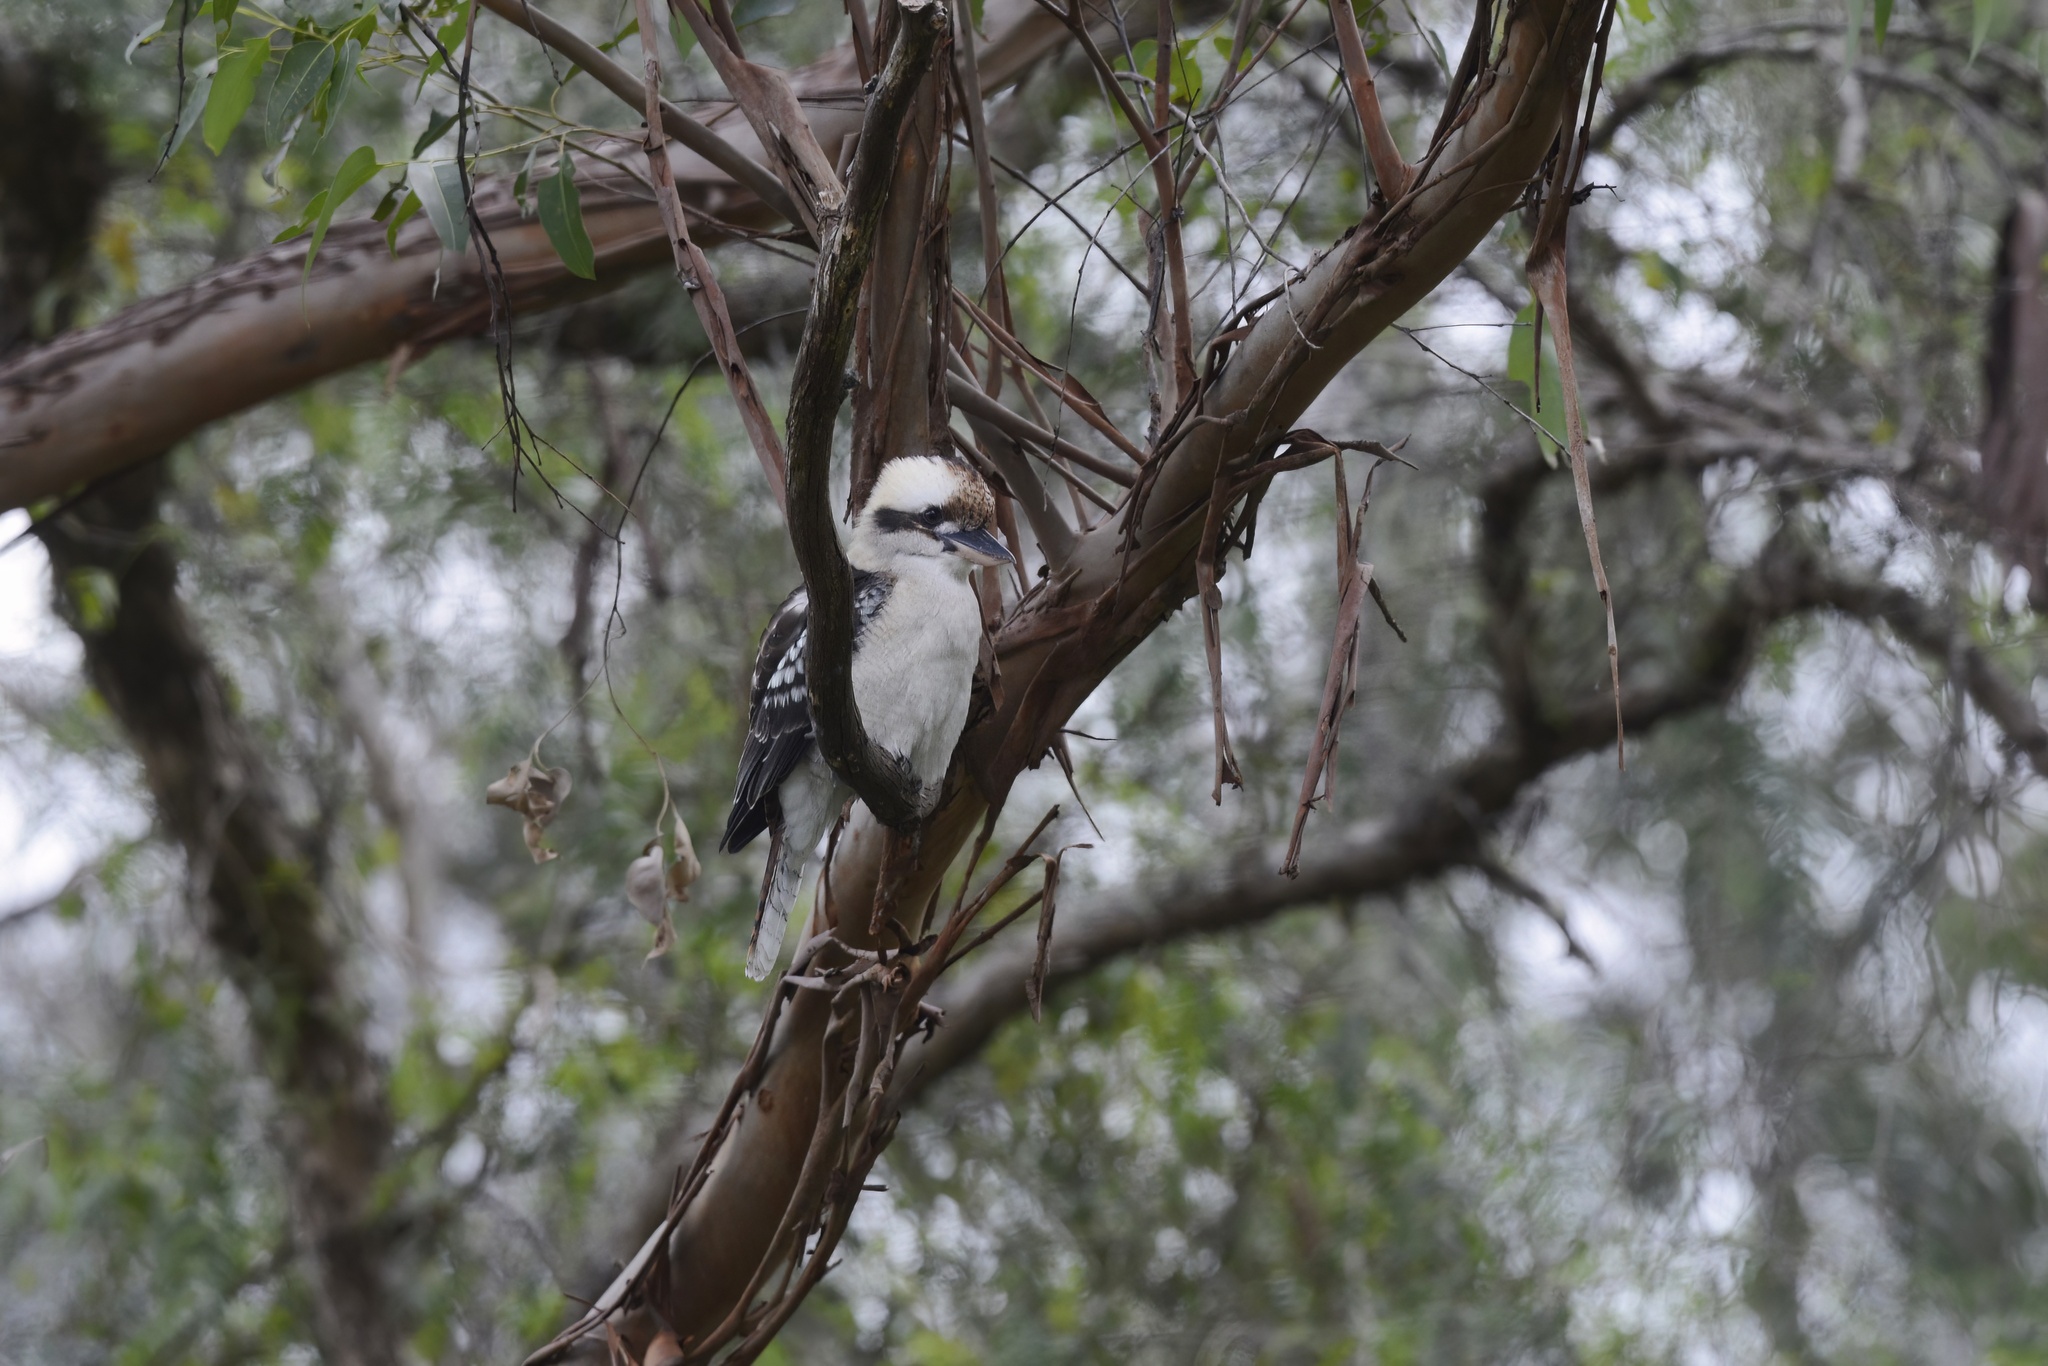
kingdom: Animalia
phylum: Chordata
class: Aves
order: Coraciiformes
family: Alcedinidae
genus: Dacelo
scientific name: Dacelo novaeguineae
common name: Laughing kookaburra
